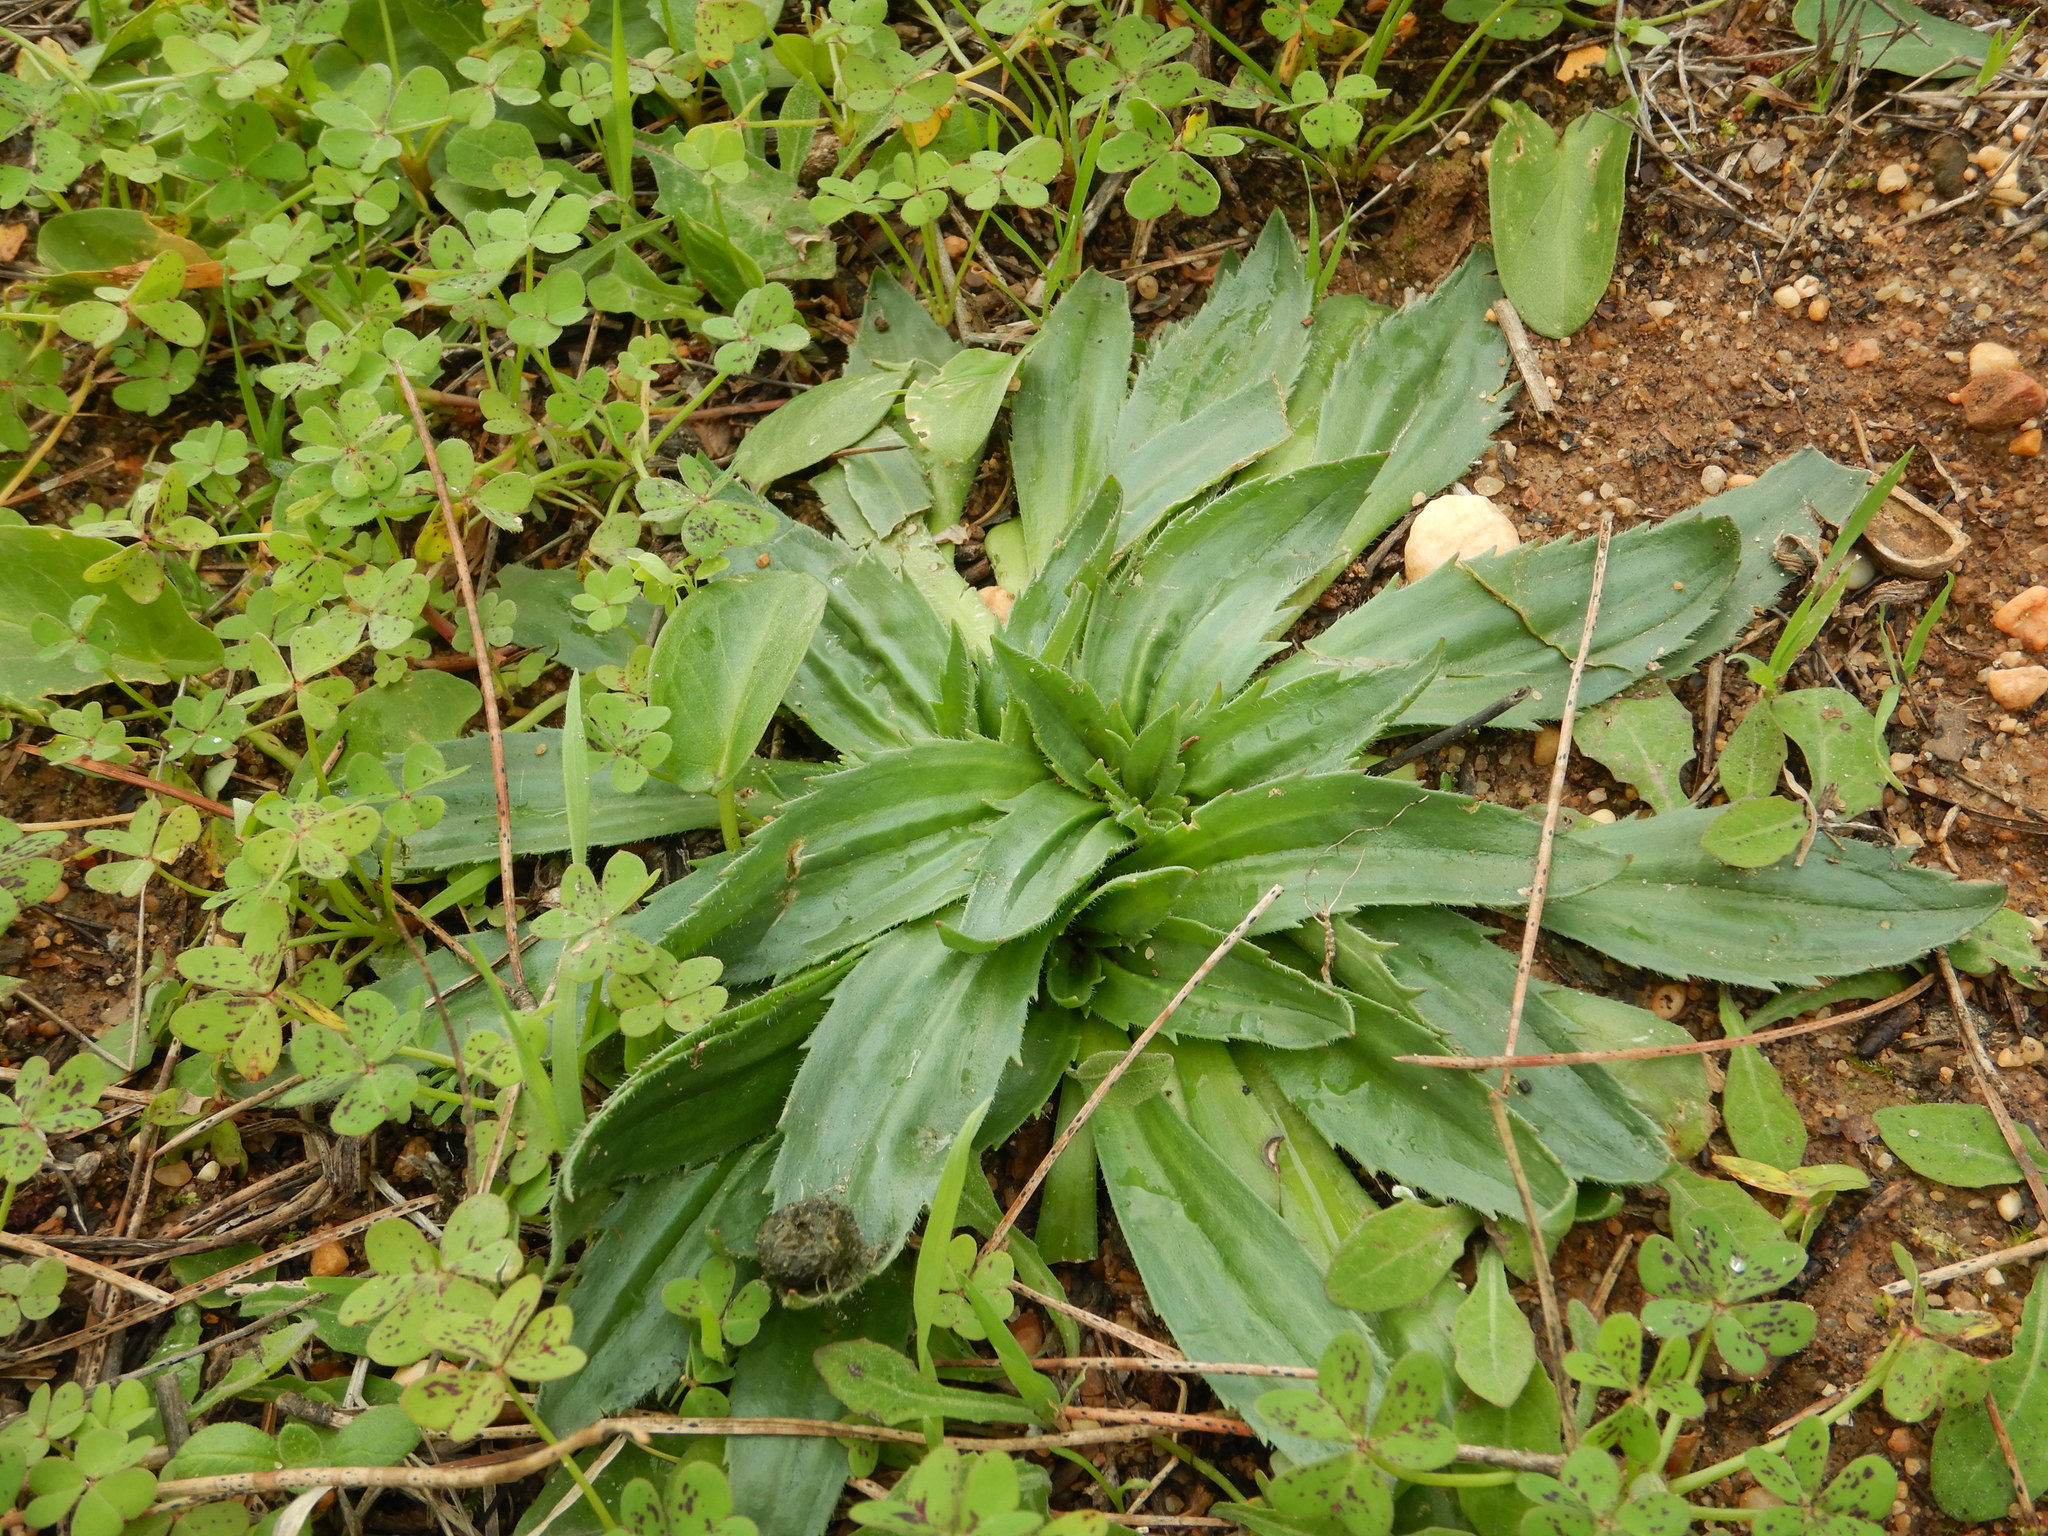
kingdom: Plantae
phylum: Tracheophyta
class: Magnoliopsida
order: Lamiales
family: Plantaginaceae
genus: Plantago
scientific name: Plantago serraria
